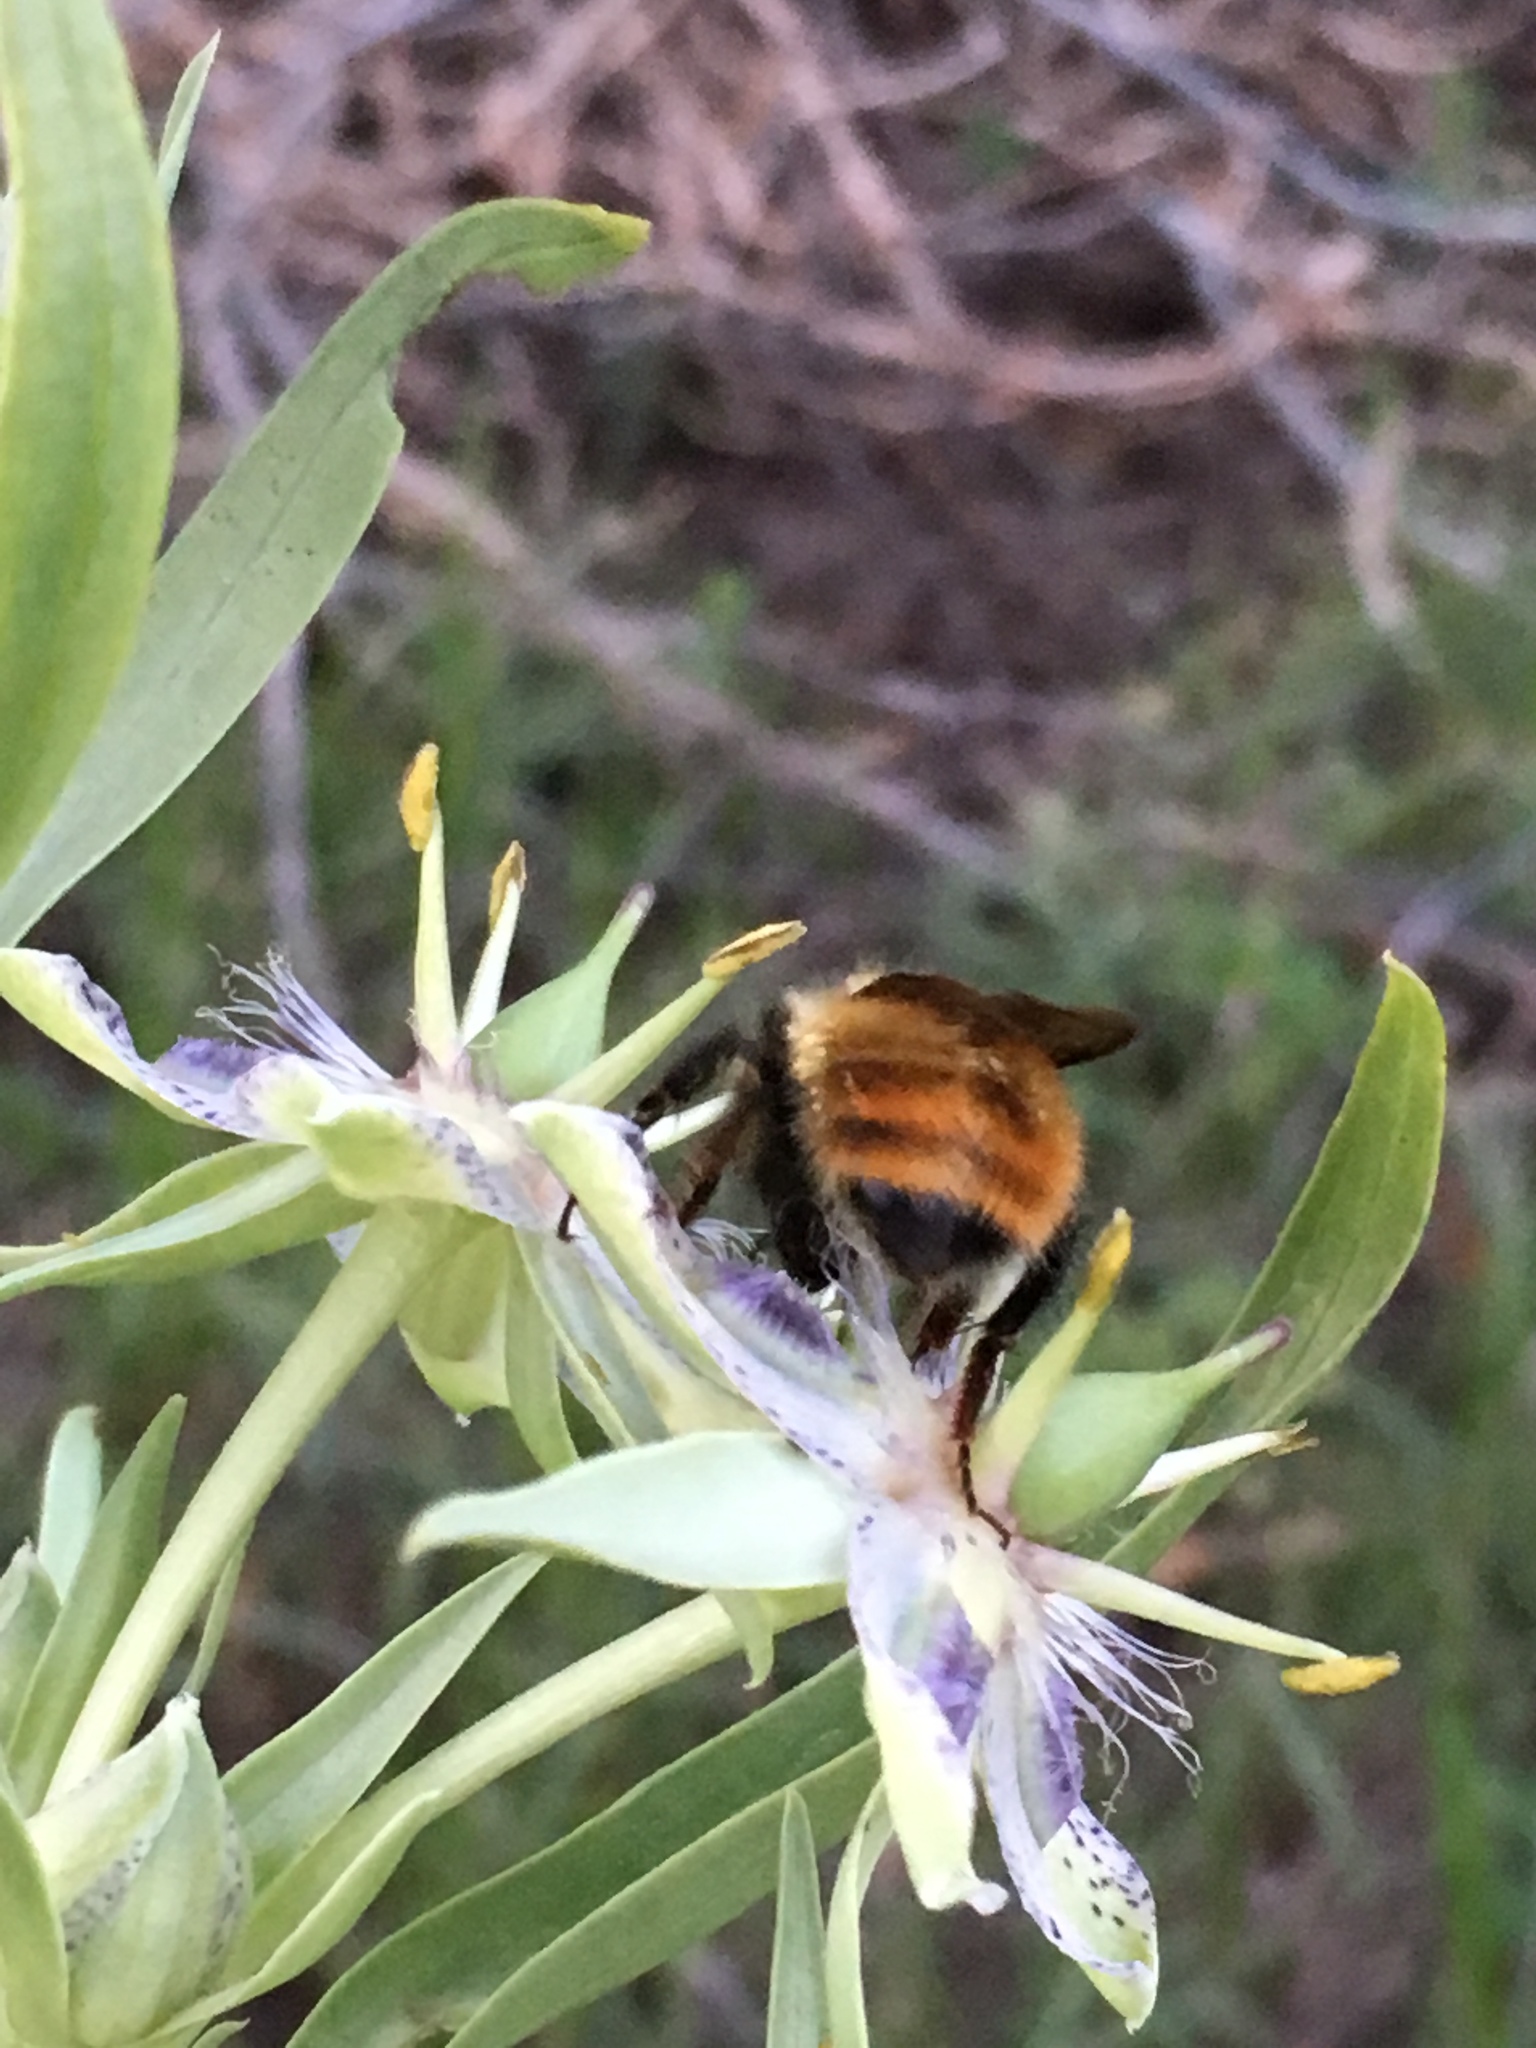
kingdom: Animalia
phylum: Arthropoda
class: Insecta
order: Hymenoptera
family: Apidae
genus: Bombus
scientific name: Bombus centralis
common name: Central bumble bee
